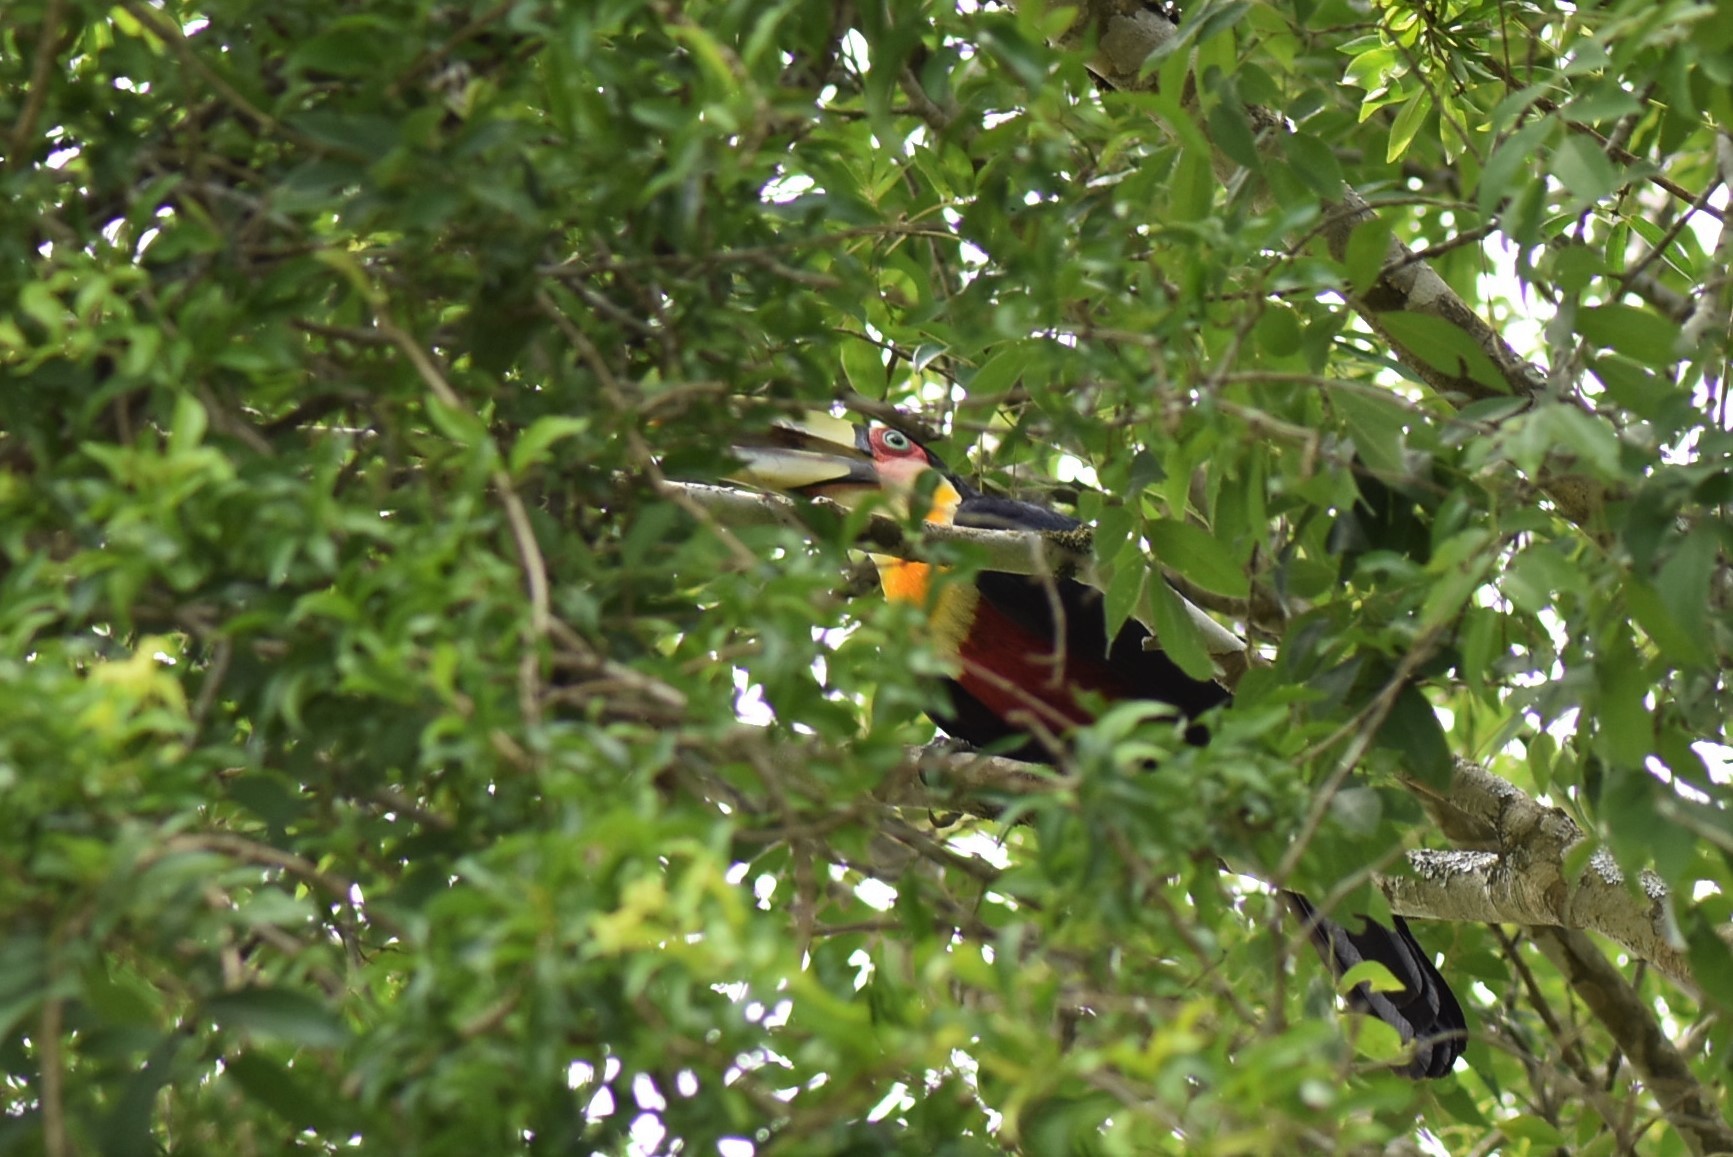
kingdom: Animalia
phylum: Chordata
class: Aves
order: Piciformes
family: Ramphastidae
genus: Ramphastos
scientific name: Ramphastos dicolorus
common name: Green-billed toucan
